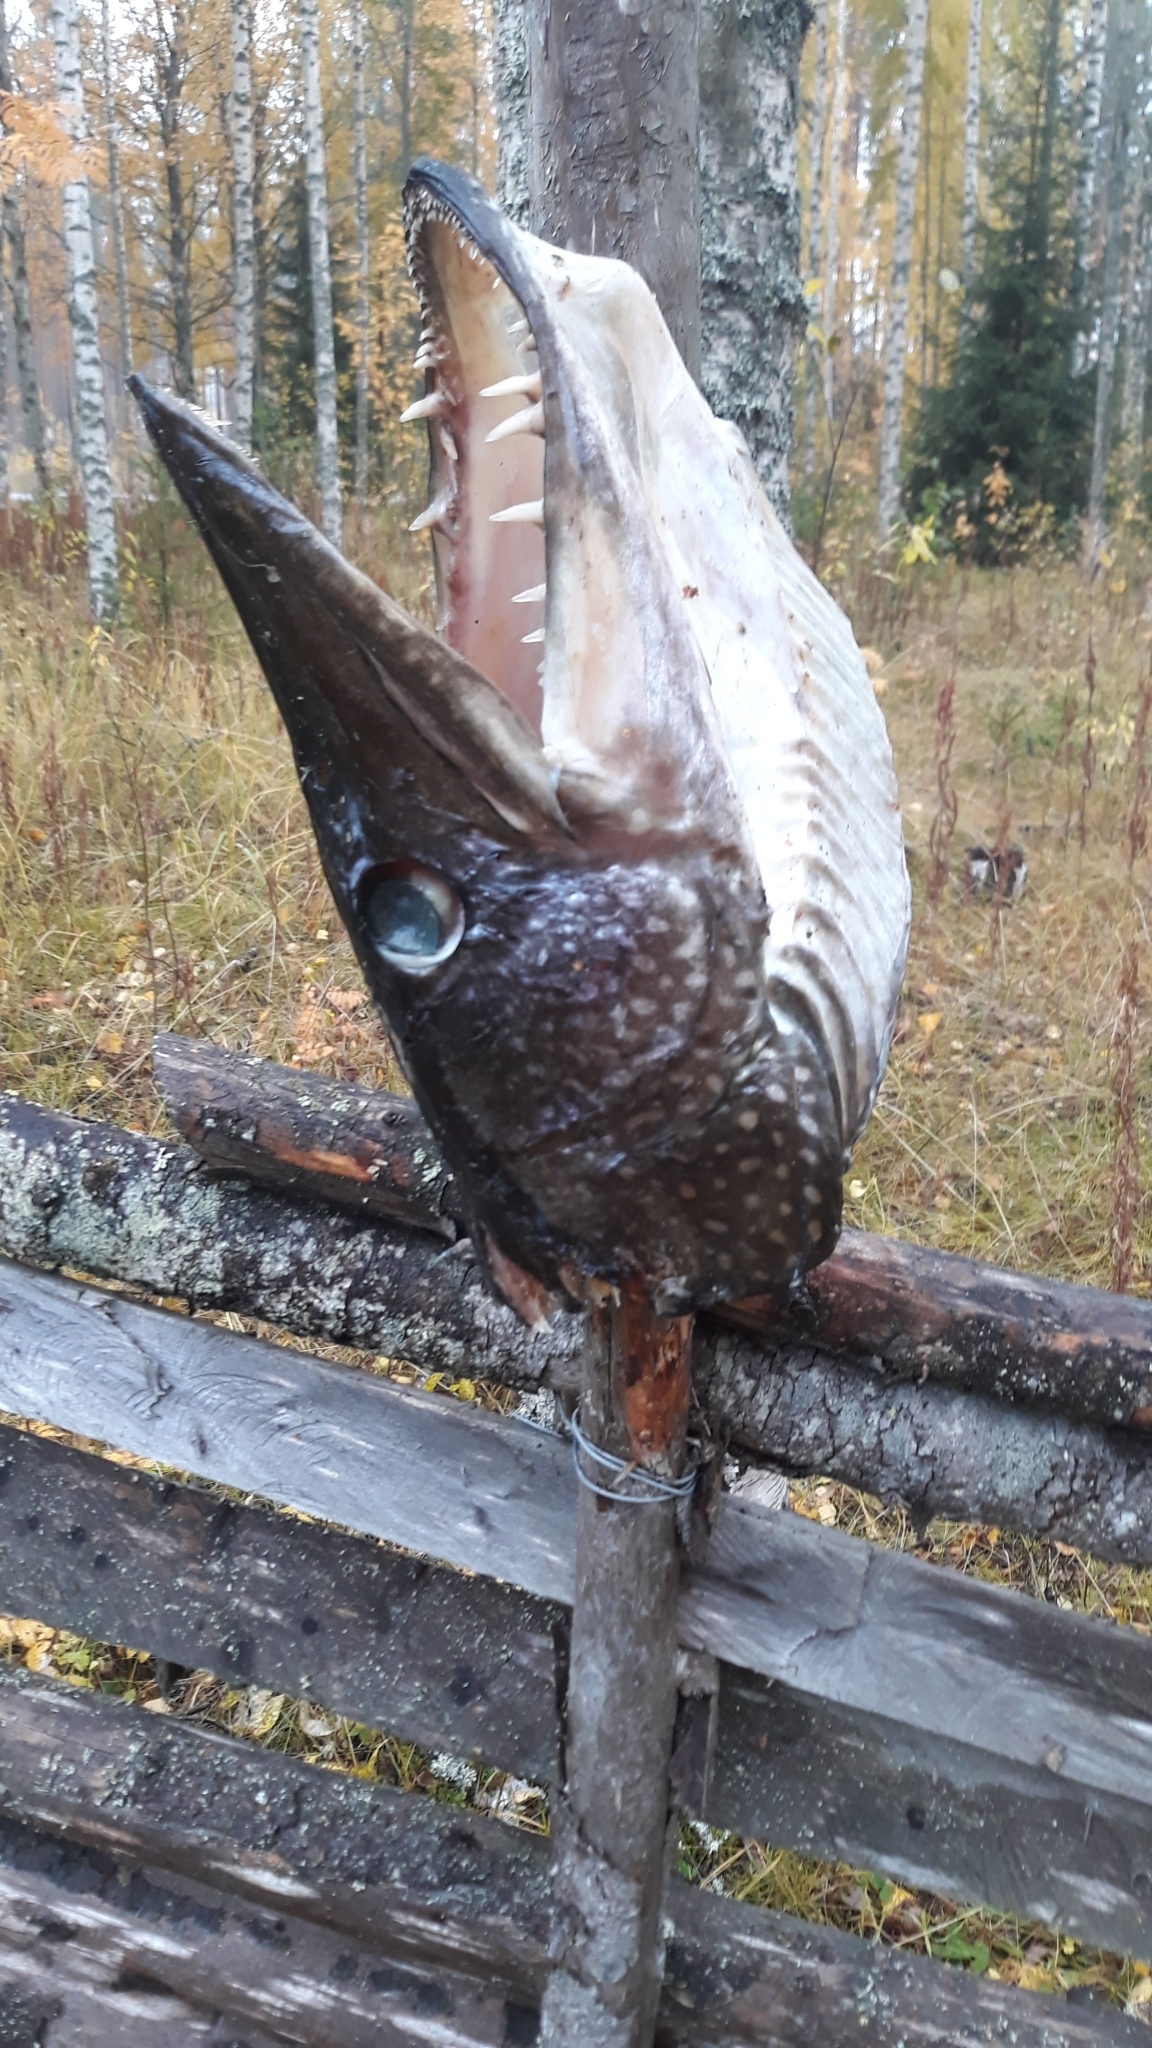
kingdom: Animalia
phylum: Chordata
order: Esociformes
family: Esocidae
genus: Esox
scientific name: Esox lucius
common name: Northern pike
